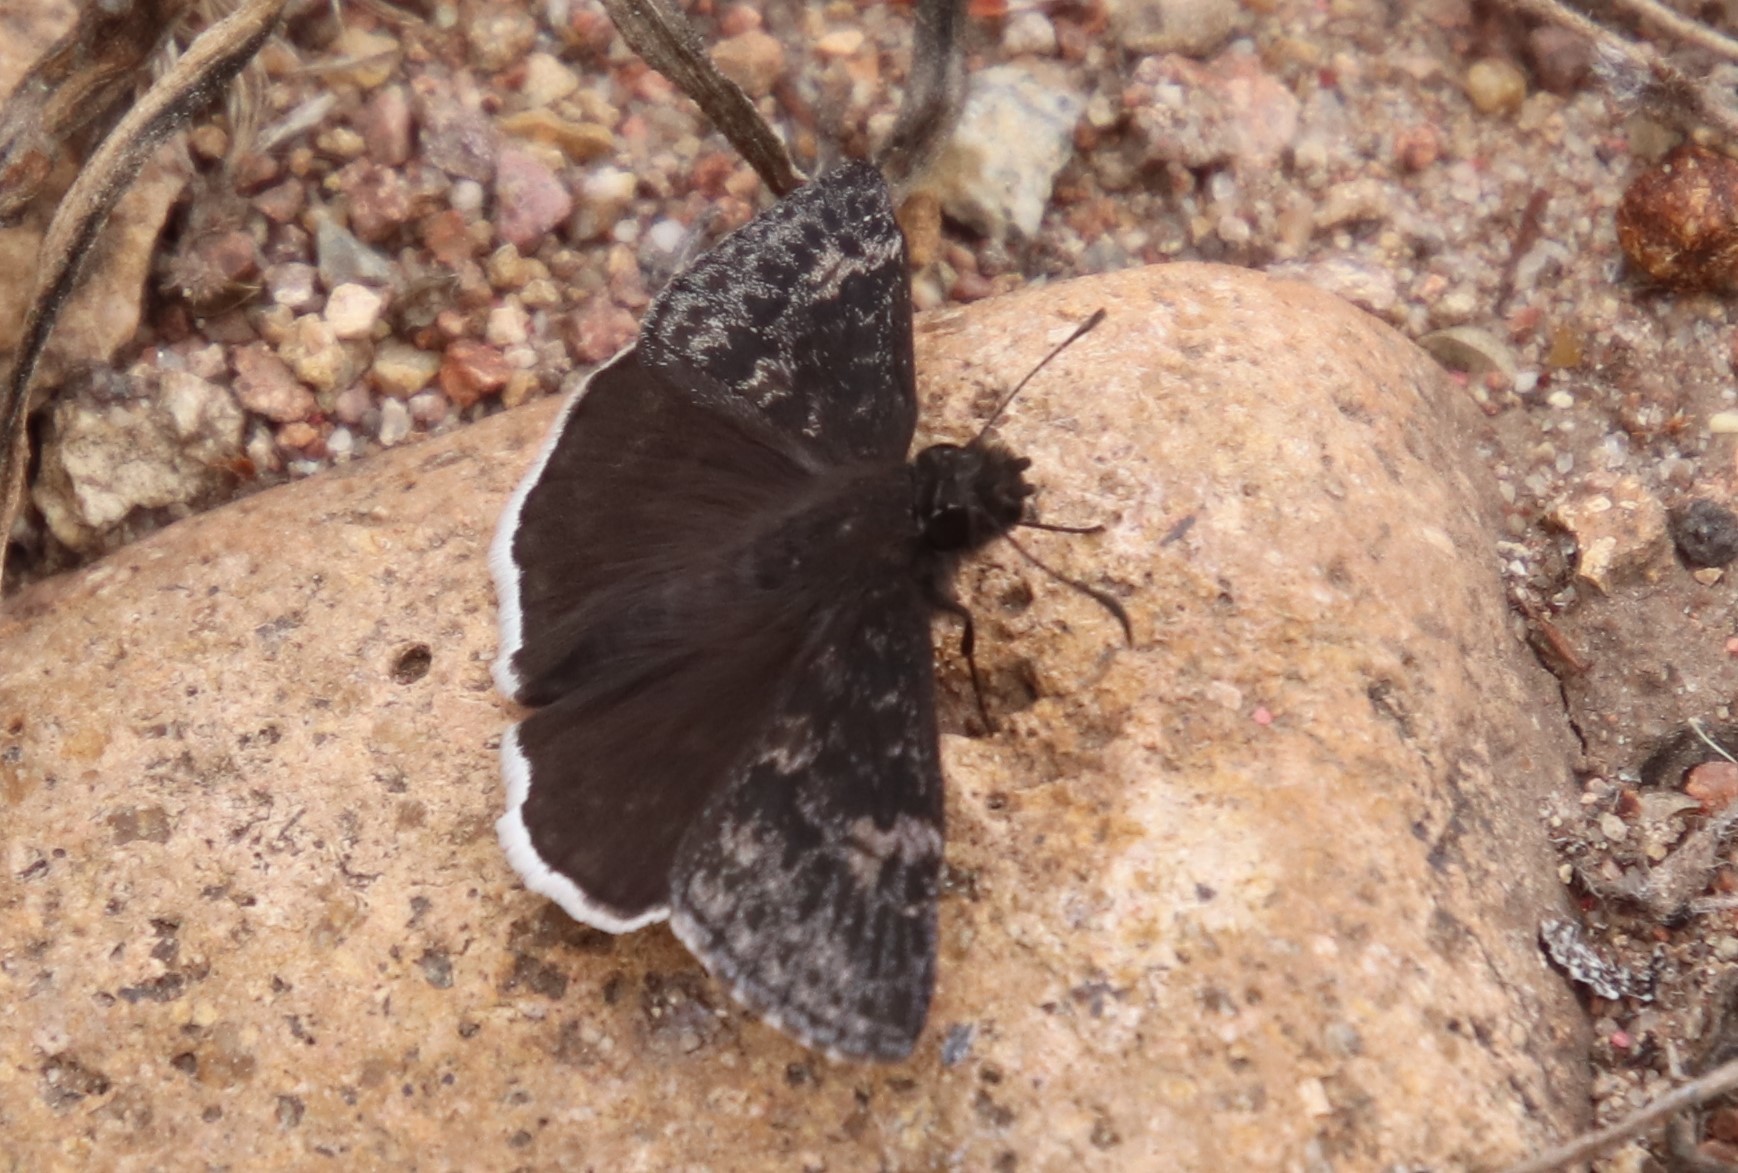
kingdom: Animalia
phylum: Arthropoda
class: Insecta
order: Lepidoptera
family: Hesperiidae
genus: Erynnis
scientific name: Erynnis funeralis
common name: Funereal duskywing
